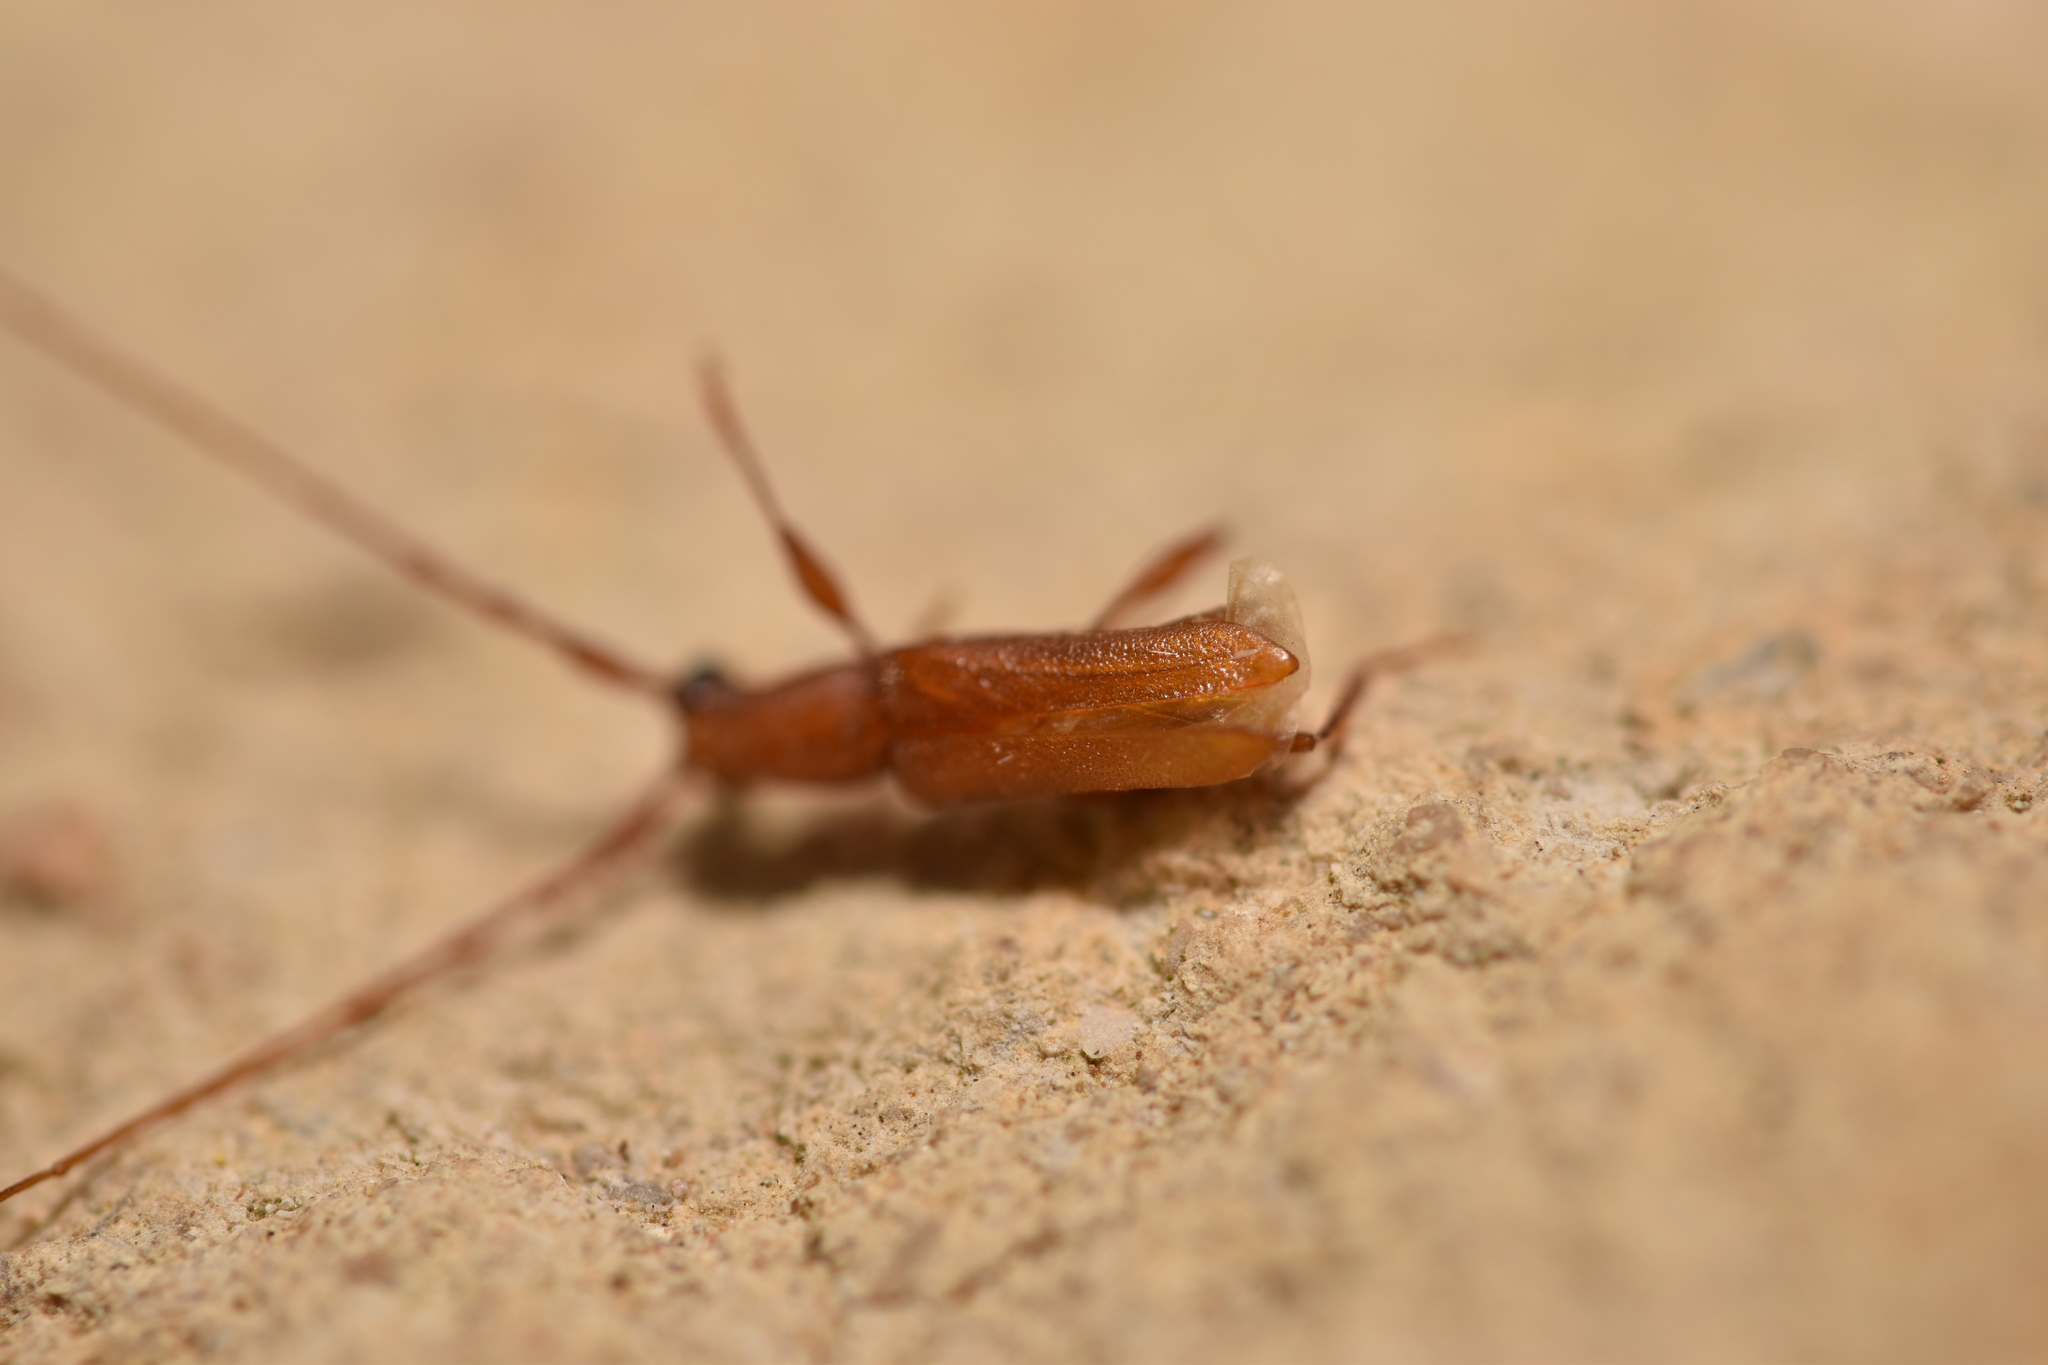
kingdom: Animalia
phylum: Arthropoda
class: Insecta
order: Coleoptera
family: Cerambycidae
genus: Hypexilis
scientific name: Hypexilis pallida
